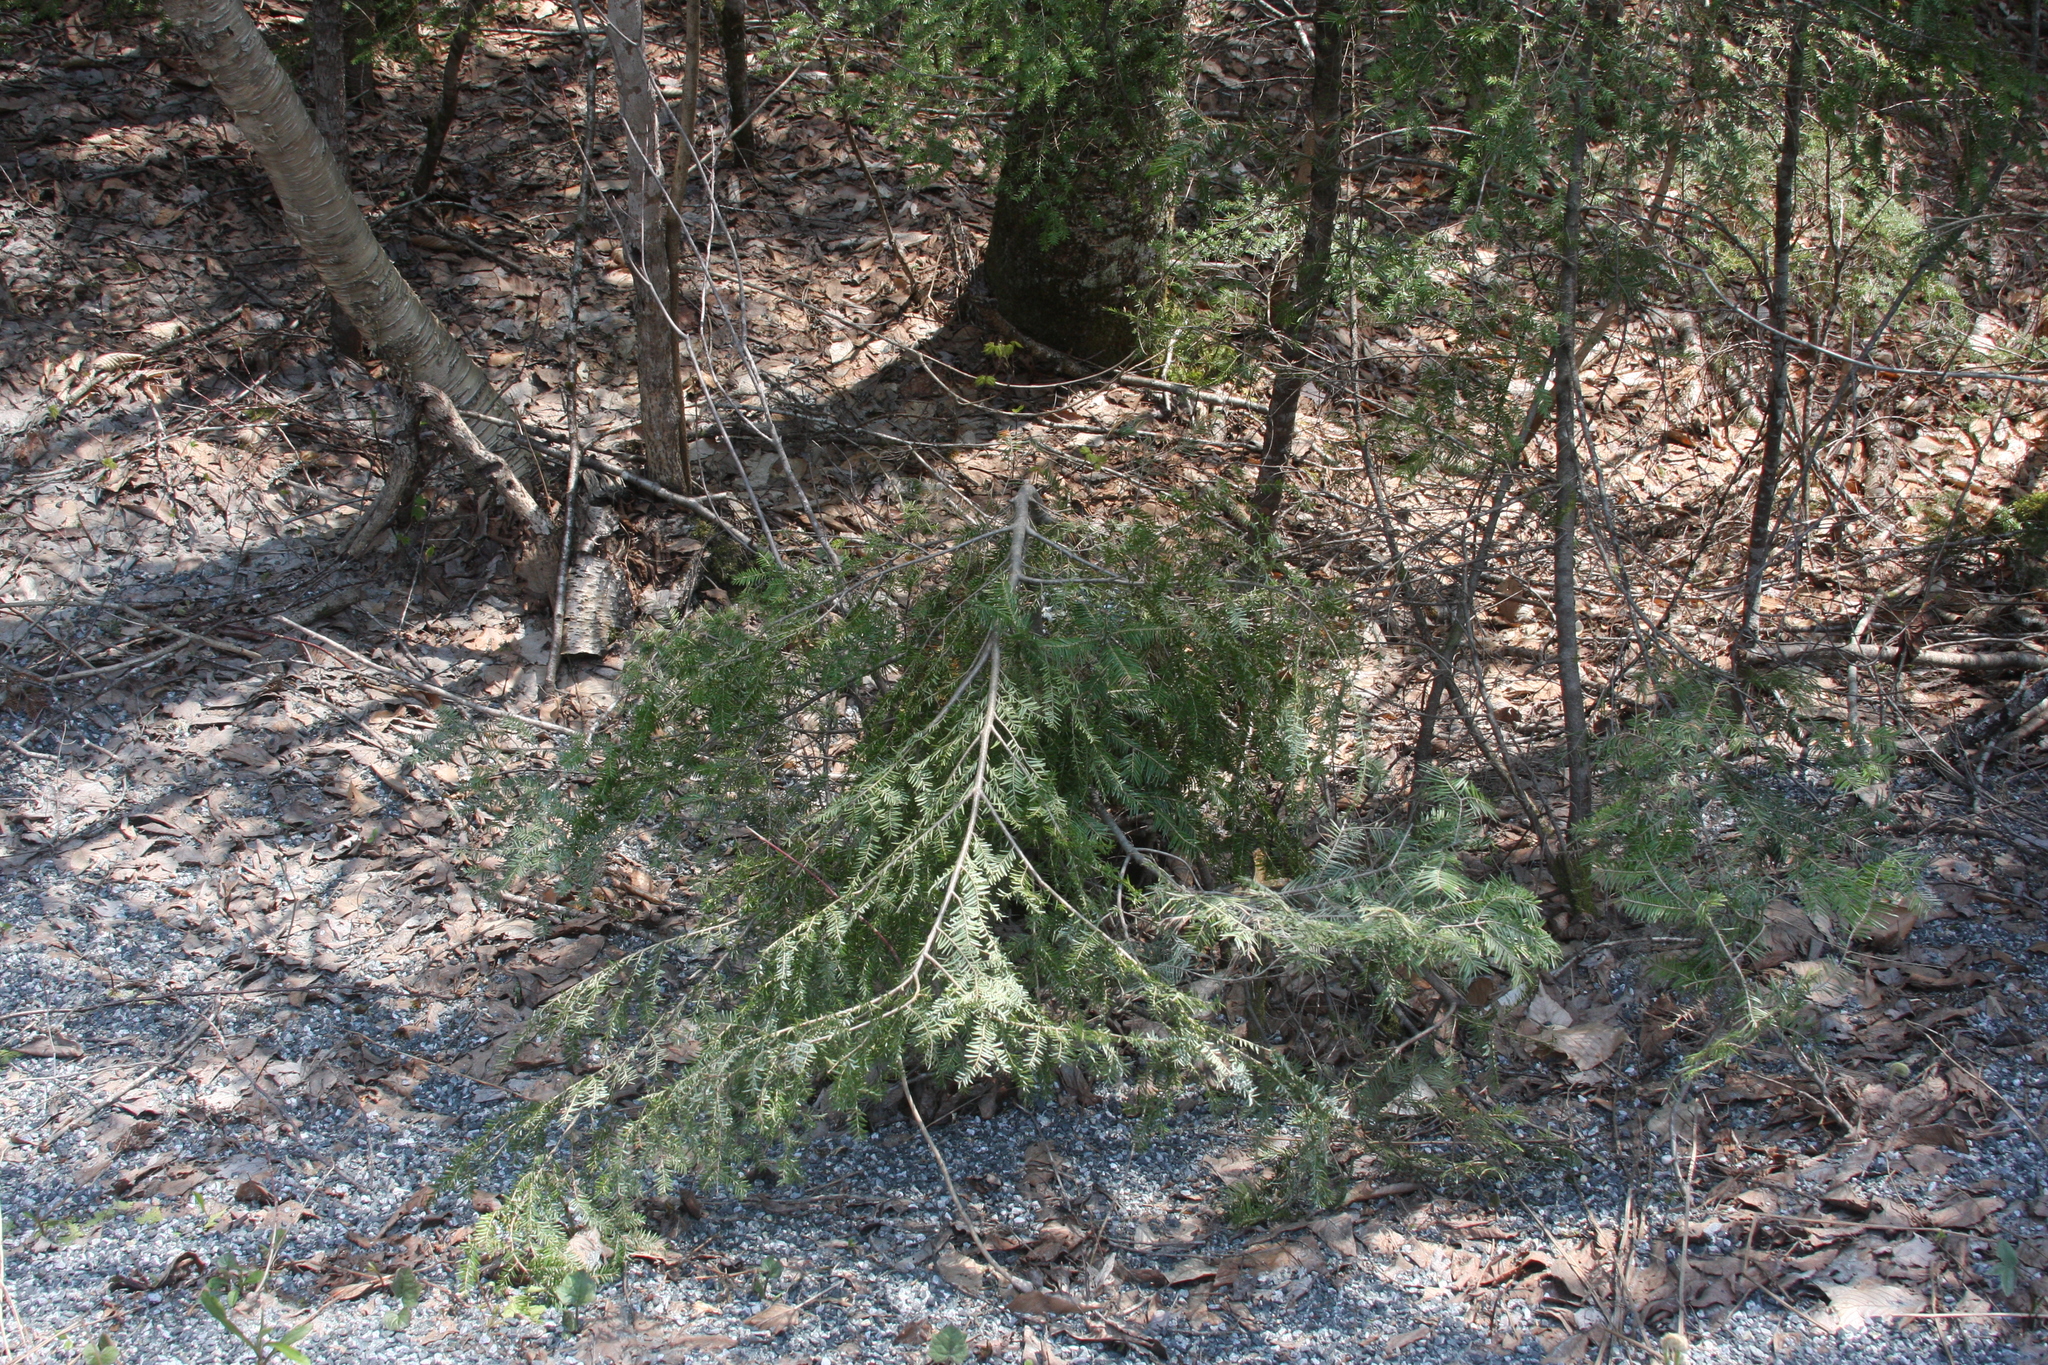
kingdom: Plantae
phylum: Tracheophyta
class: Pinopsida
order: Pinales
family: Pinaceae
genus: Tsuga
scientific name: Tsuga canadensis
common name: Eastern hemlock
